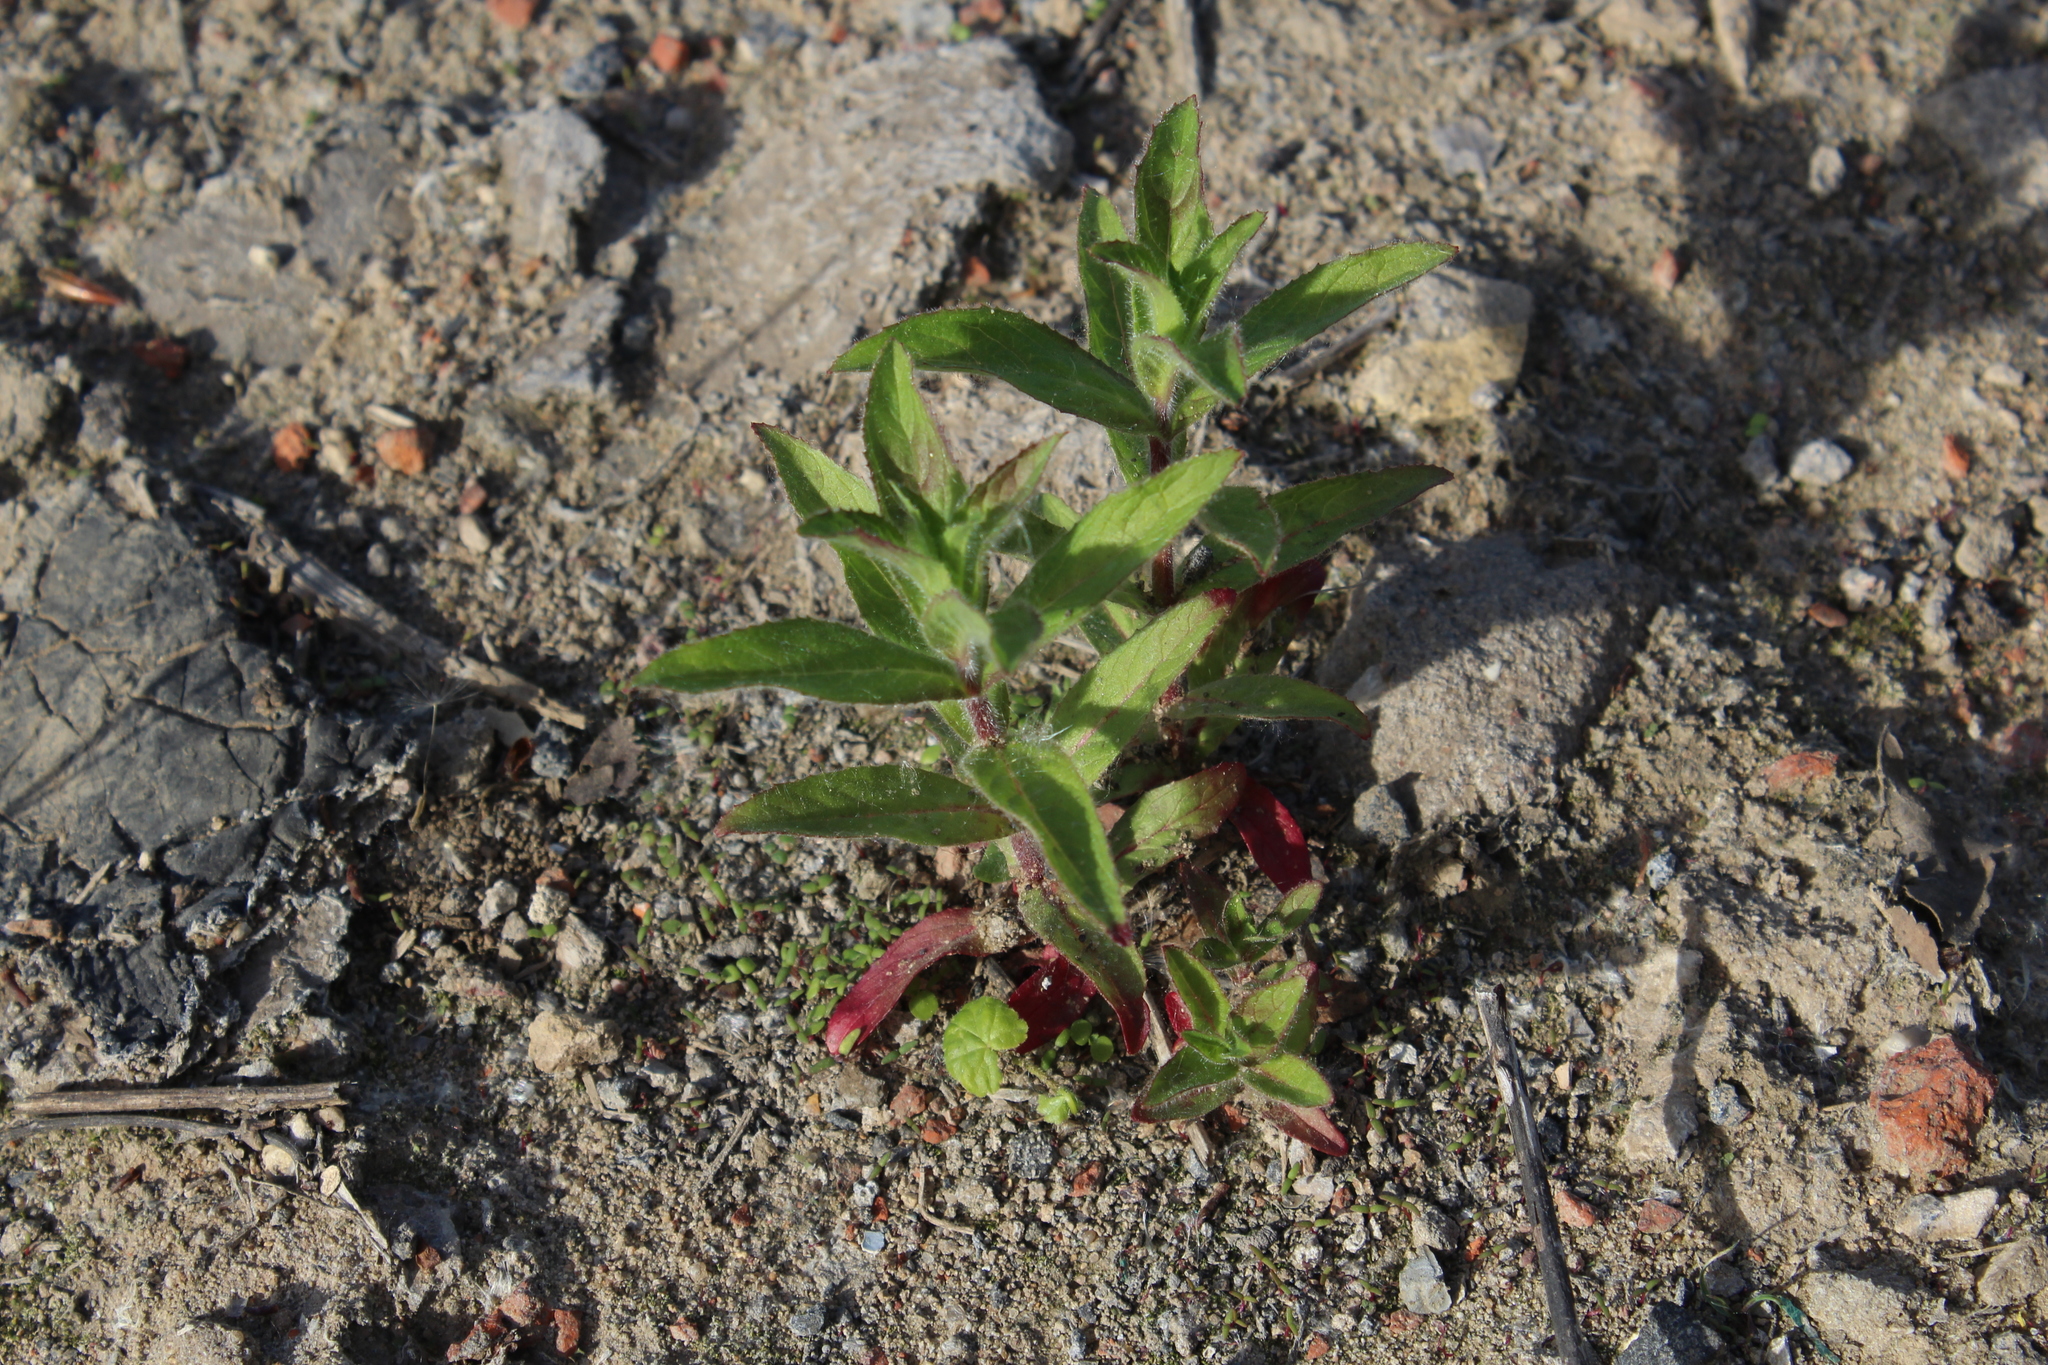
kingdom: Plantae
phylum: Tracheophyta
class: Magnoliopsida
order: Myrtales
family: Onagraceae
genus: Epilobium
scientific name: Epilobium hirsutum
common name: Great willowherb
